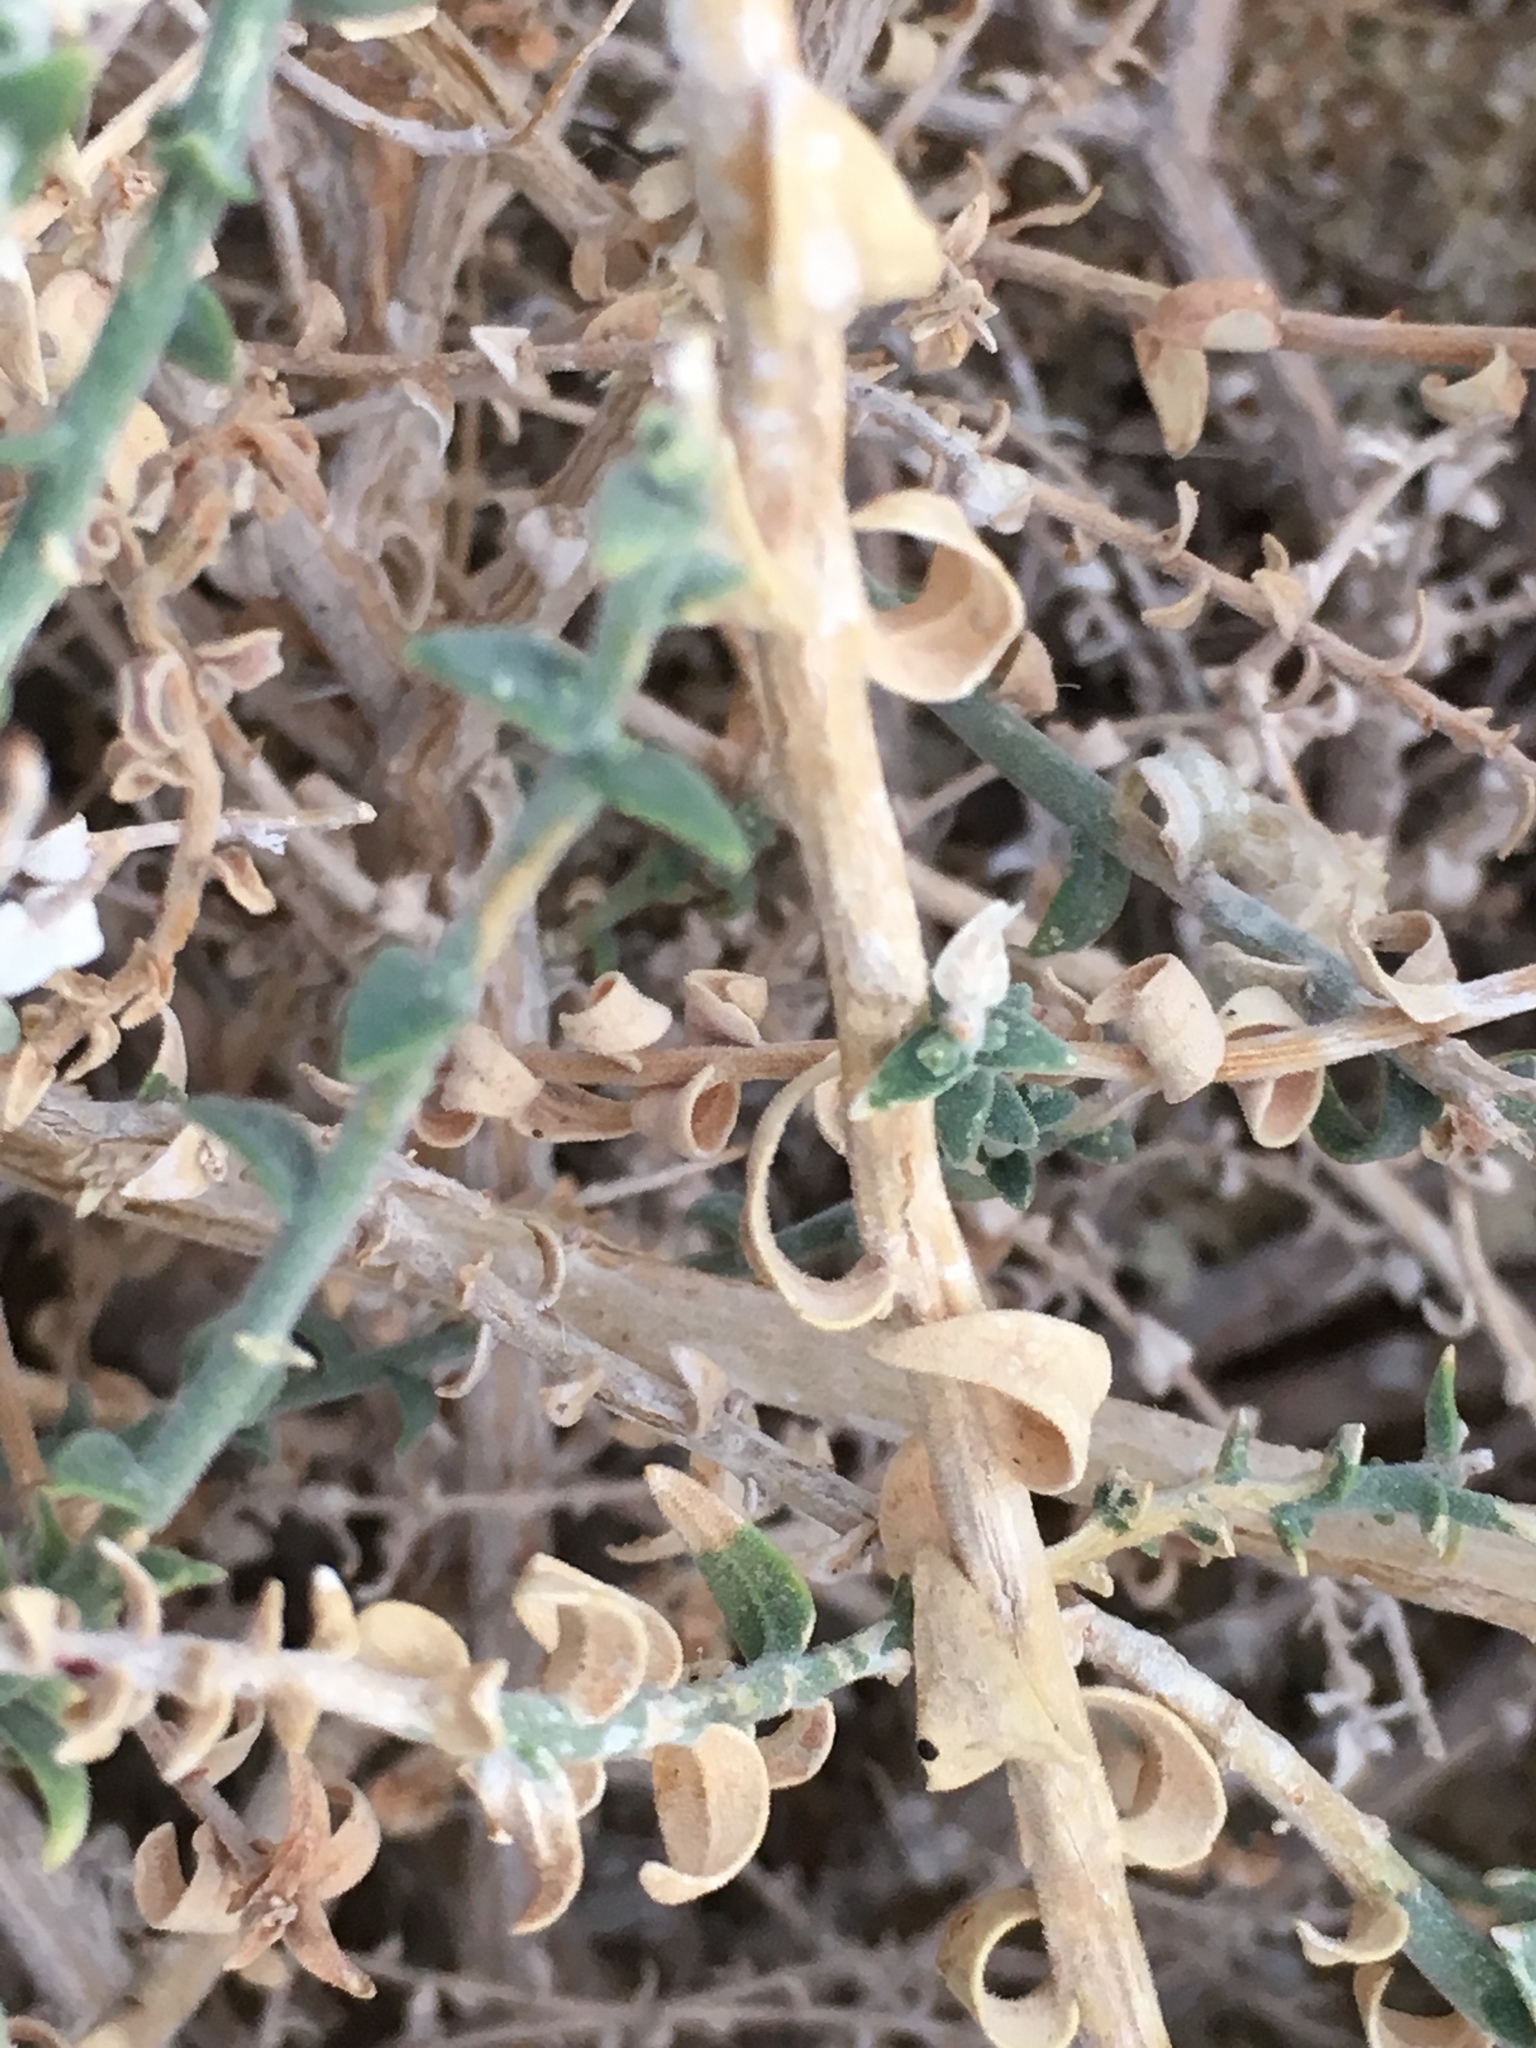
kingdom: Plantae
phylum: Tracheophyta
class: Magnoliopsida
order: Cornales
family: Loasaceae
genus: Petalonyx
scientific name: Petalonyx thurberi
